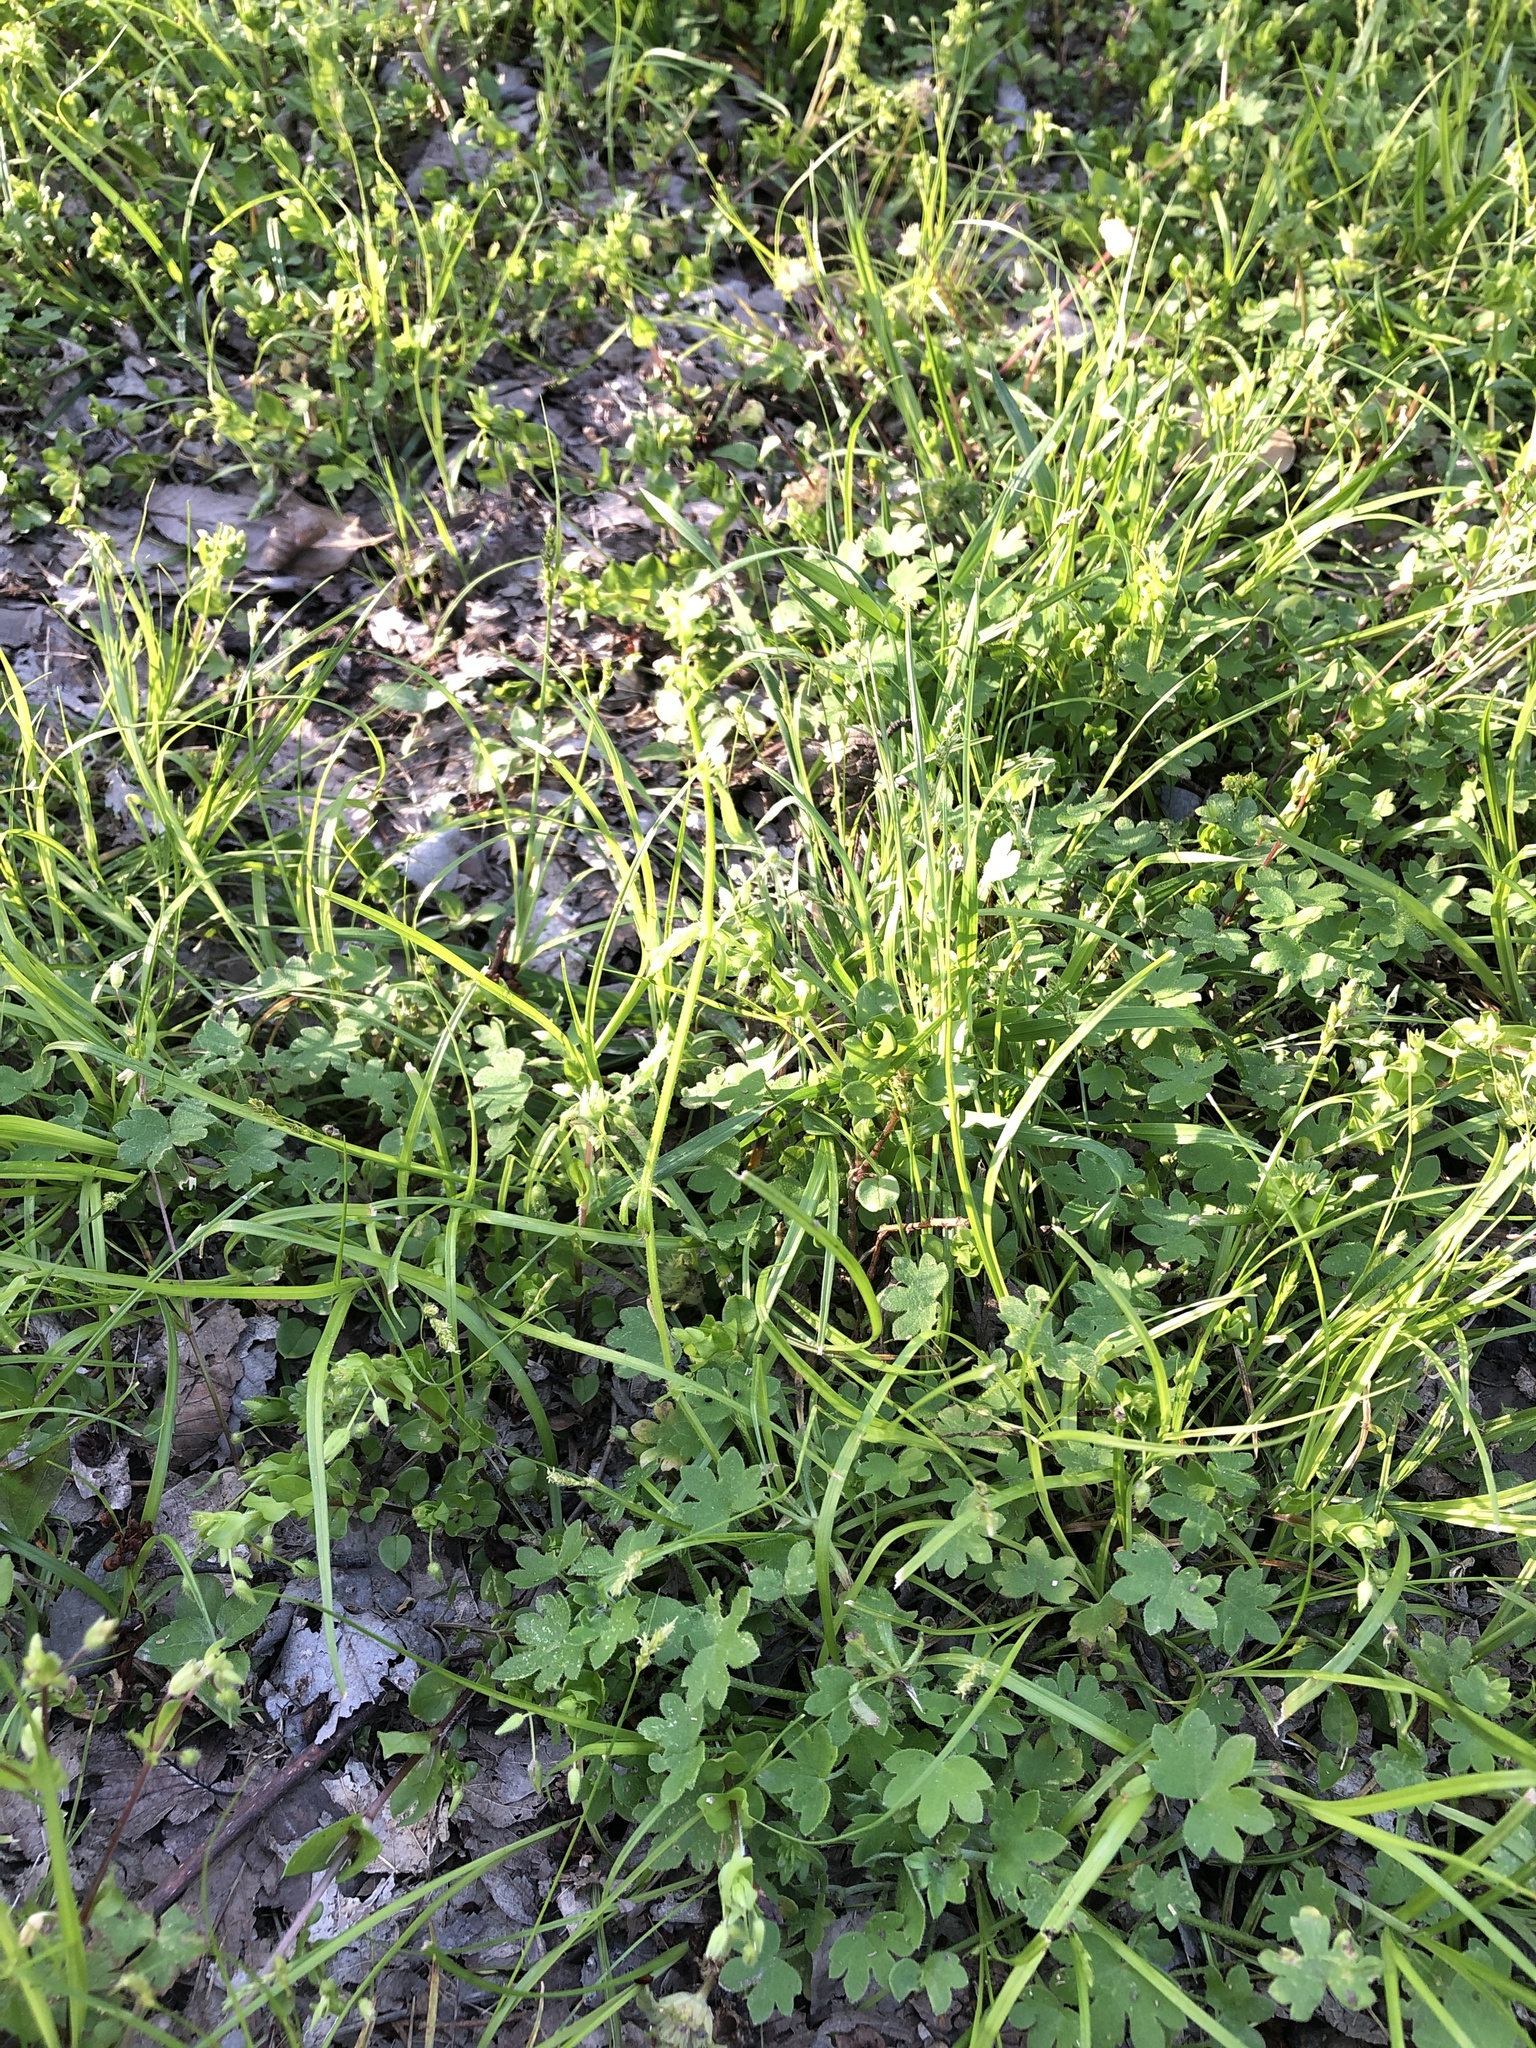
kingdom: Plantae
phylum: Tracheophyta
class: Magnoliopsida
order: Gentianales
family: Rubiaceae
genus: Galium
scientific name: Galium aparine
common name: Cleavers
